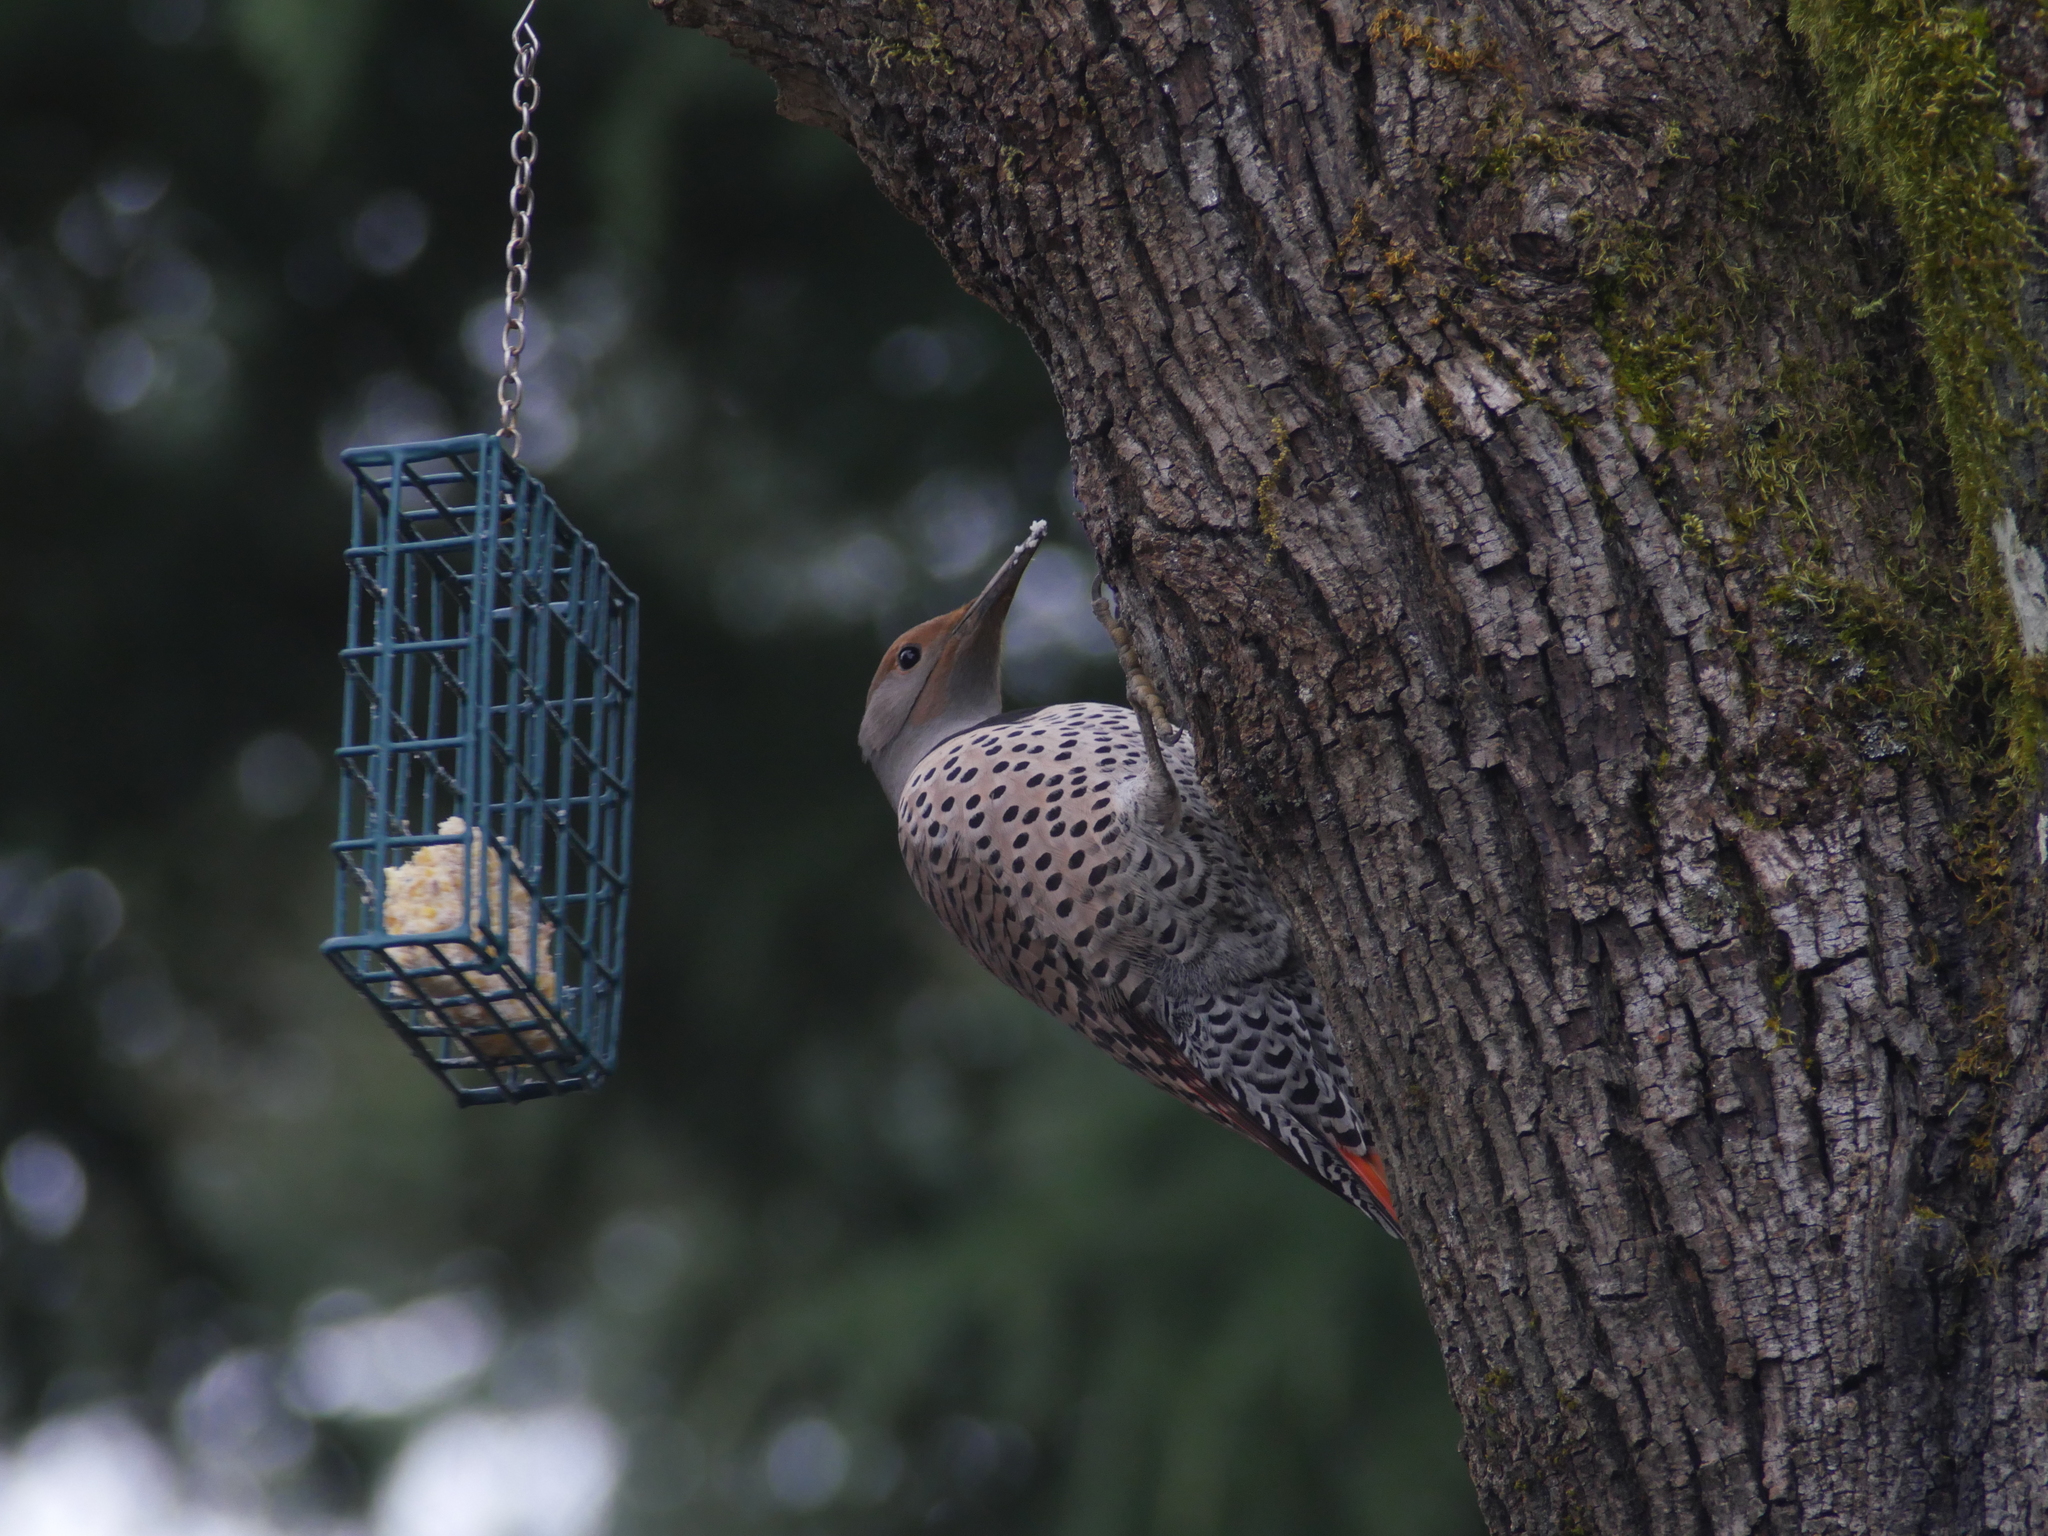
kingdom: Animalia
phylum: Chordata
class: Aves
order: Piciformes
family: Picidae
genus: Colaptes
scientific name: Colaptes auratus
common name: Northern flicker
